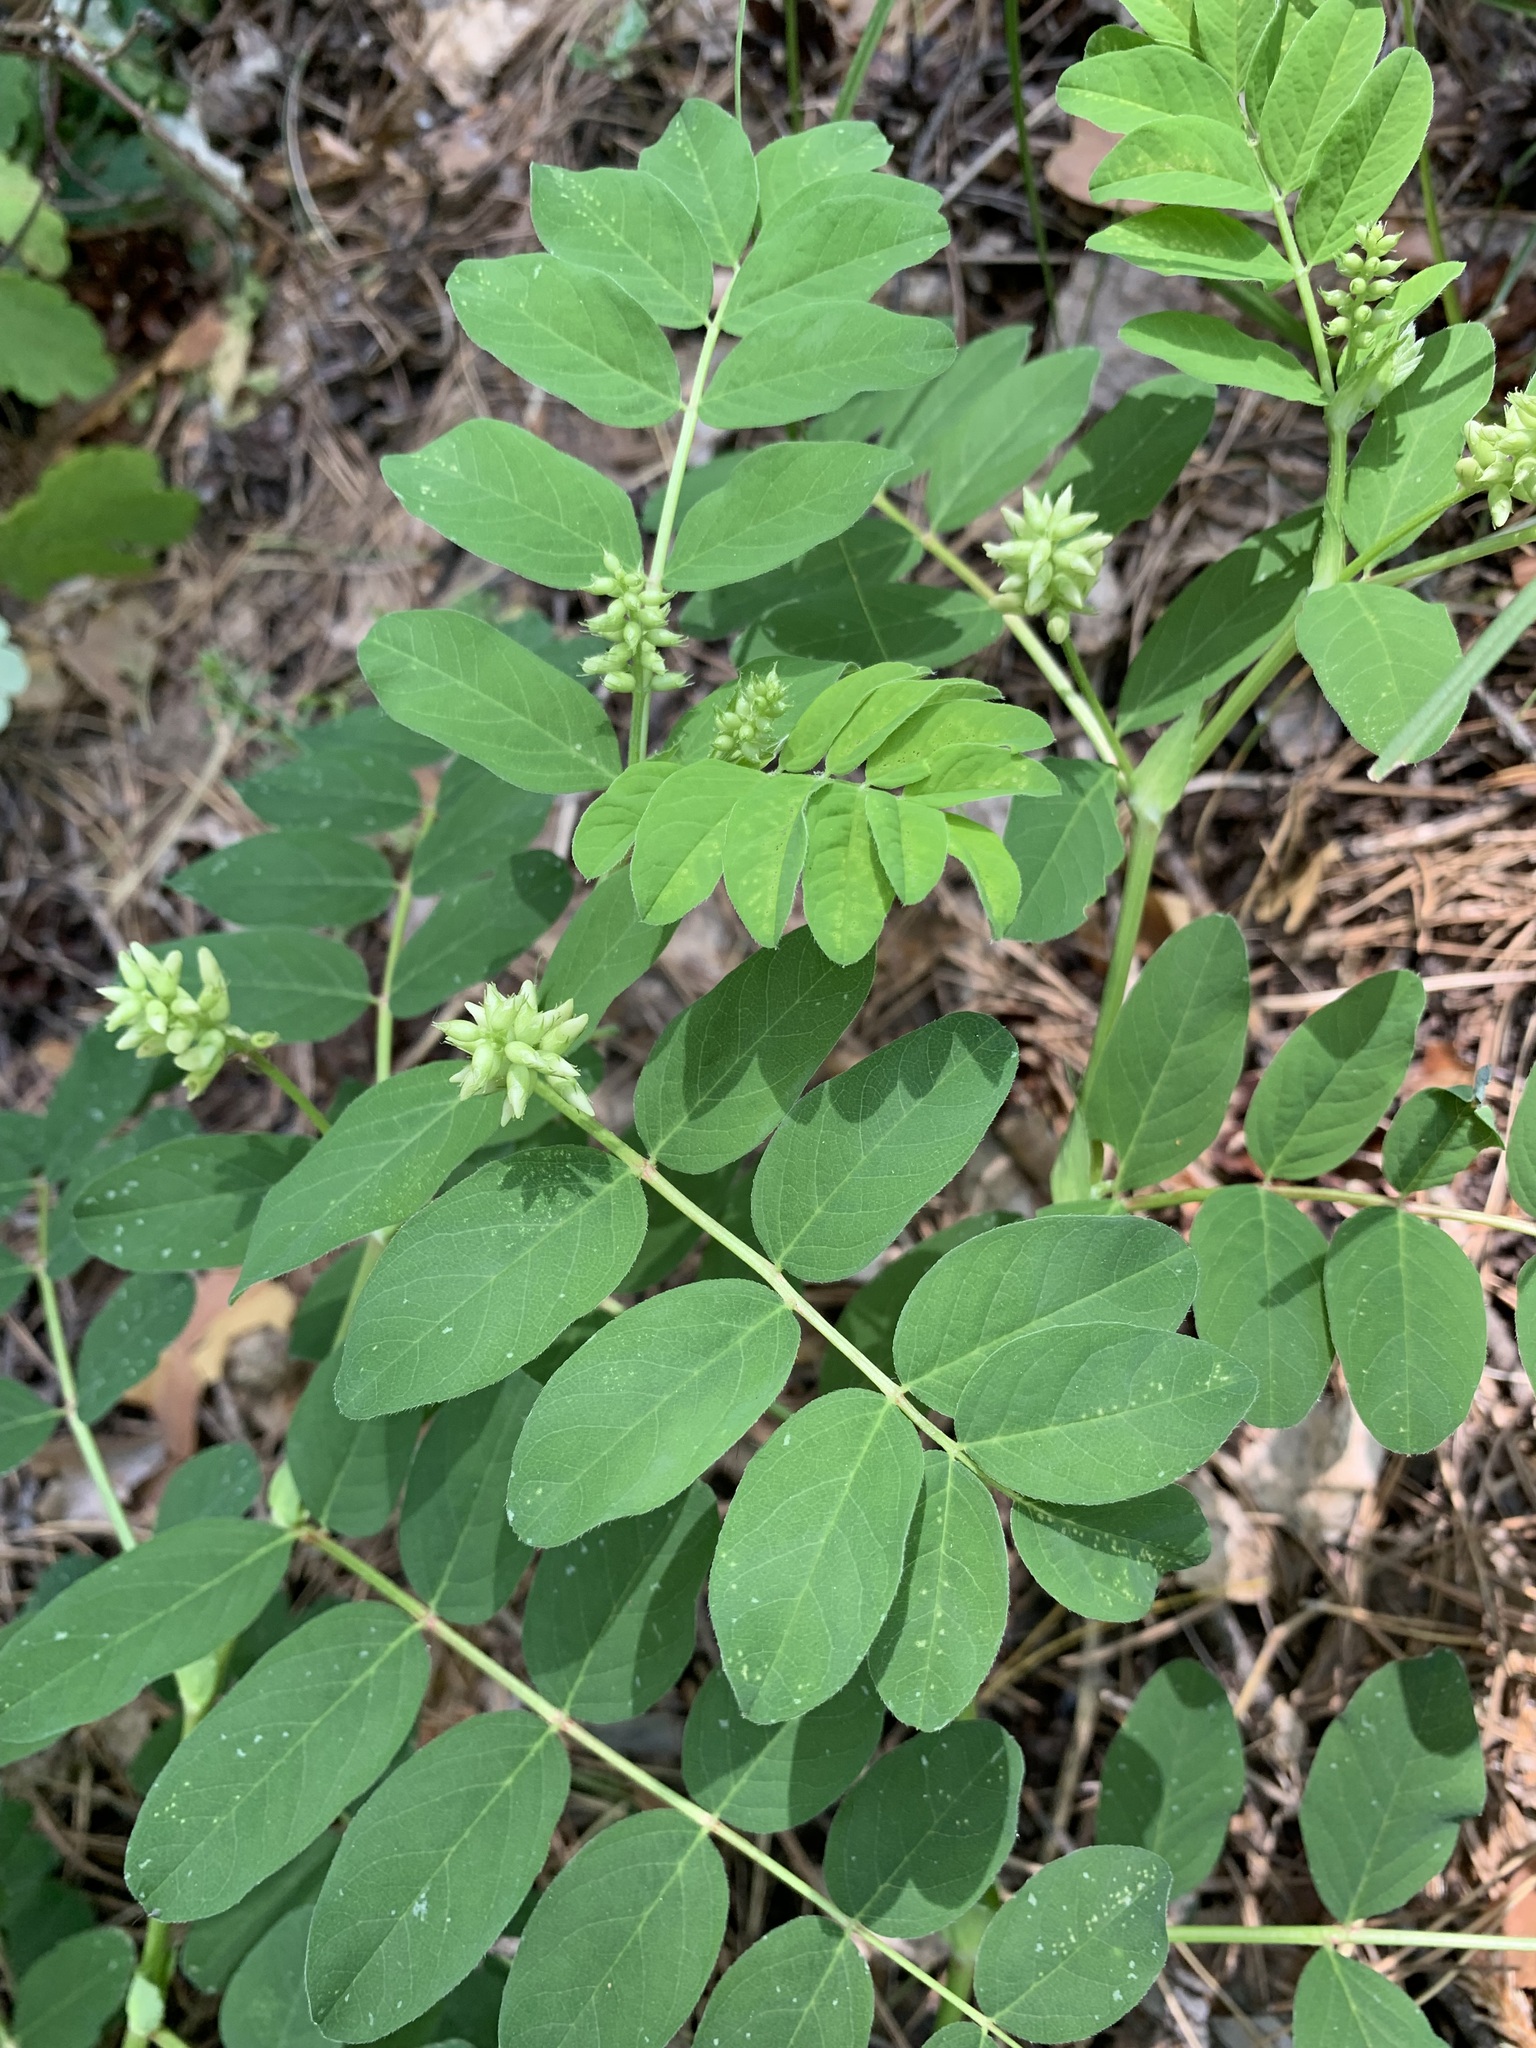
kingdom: Plantae
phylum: Tracheophyta
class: Magnoliopsida
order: Fabales
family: Fabaceae
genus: Astragalus
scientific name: Astragalus glycyphyllos
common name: Wild liquorice
